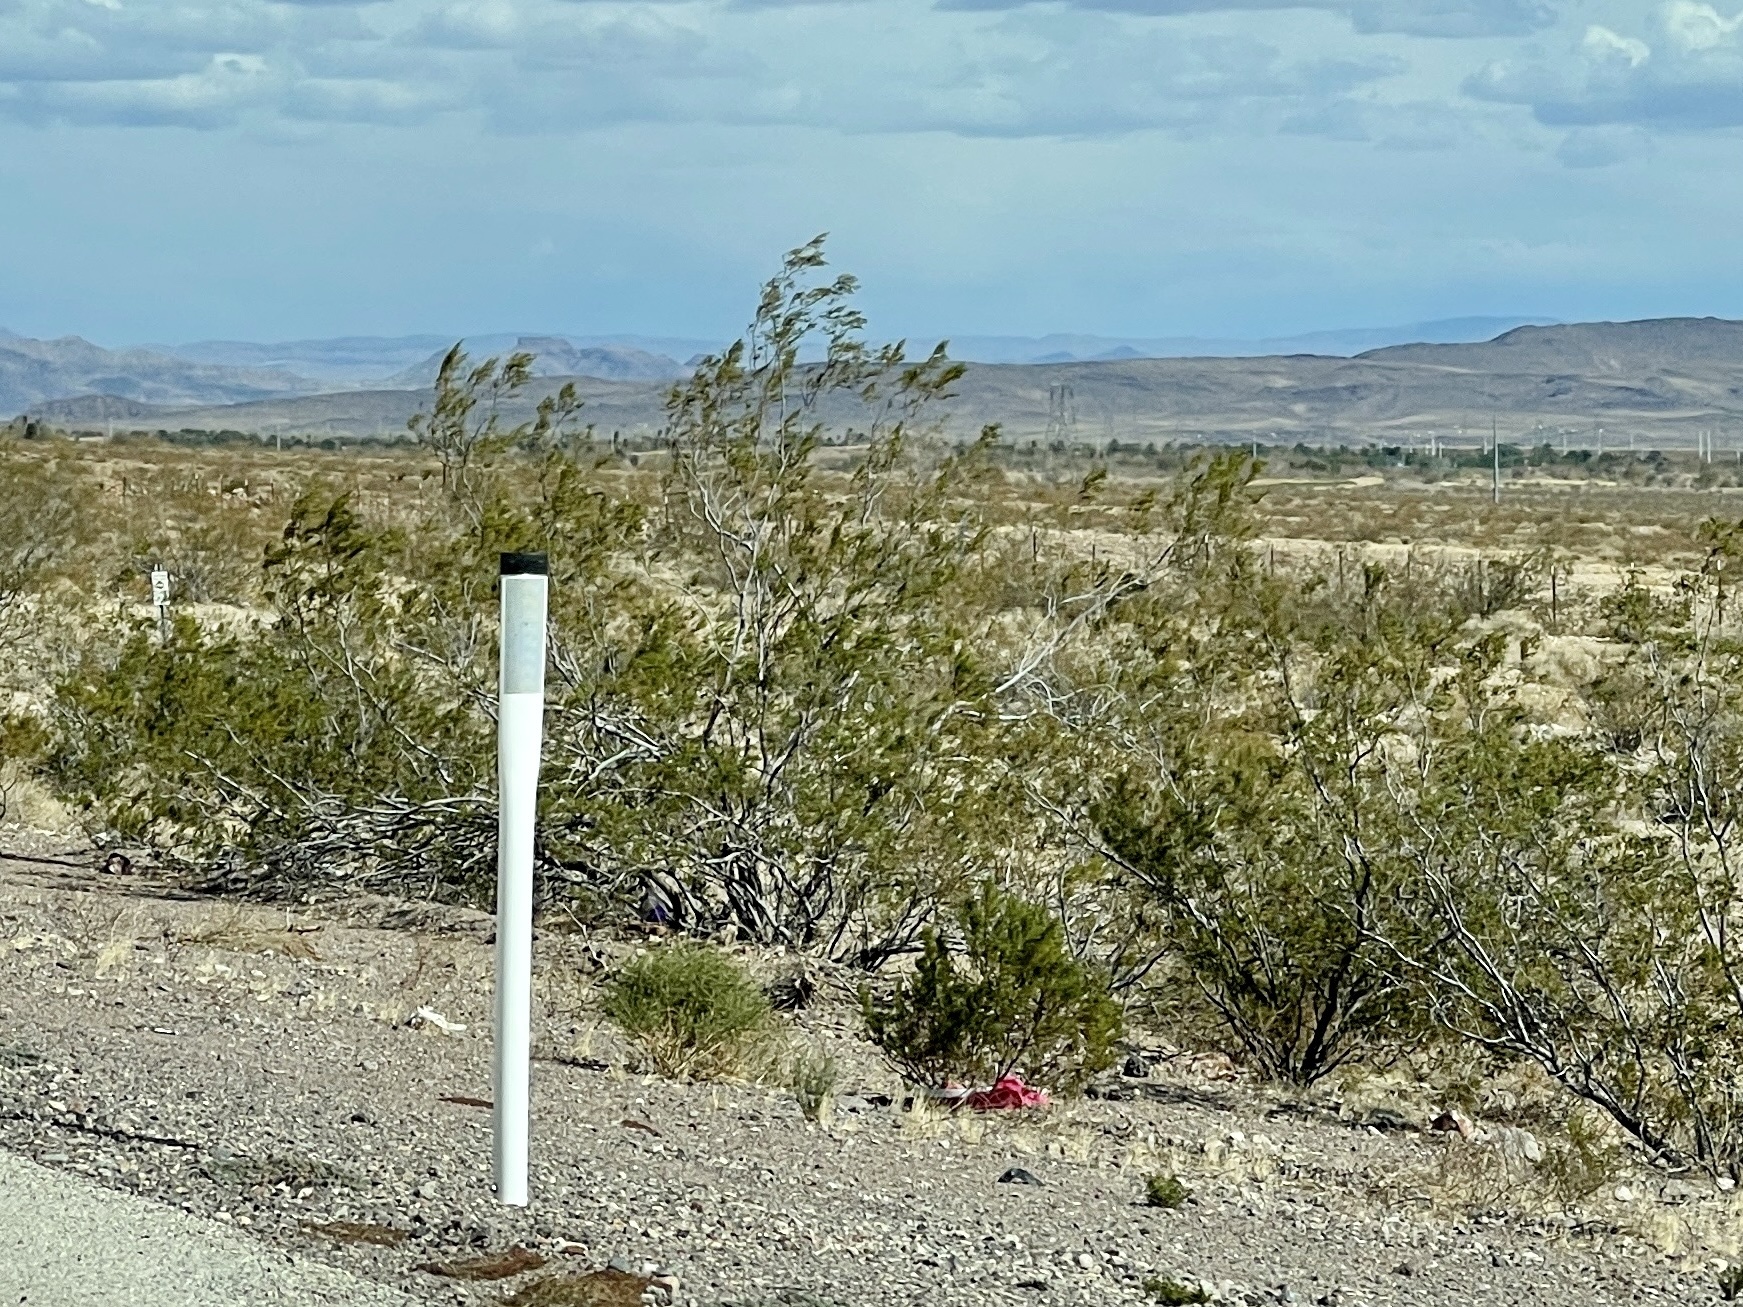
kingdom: Plantae
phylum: Tracheophyta
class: Magnoliopsida
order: Zygophyllales
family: Zygophyllaceae
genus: Larrea
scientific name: Larrea tridentata
